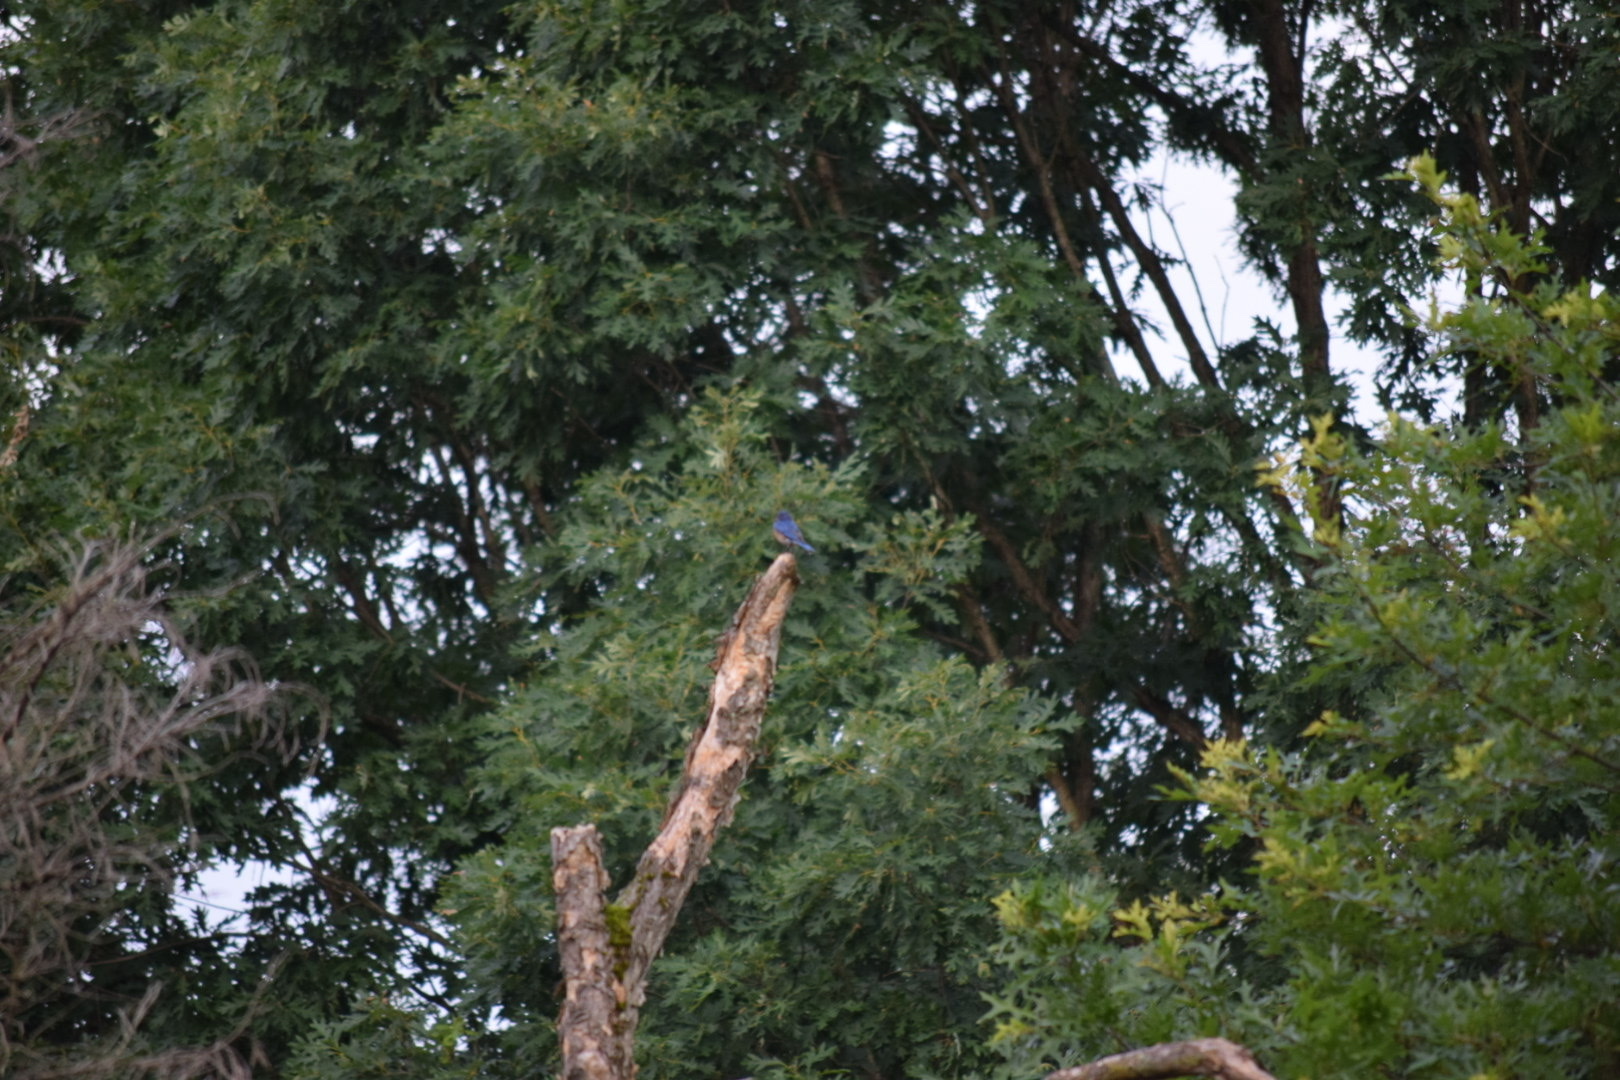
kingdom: Animalia
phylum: Chordata
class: Aves
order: Passeriformes
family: Turdidae
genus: Sialia
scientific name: Sialia sialis
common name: Eastern bluebird
